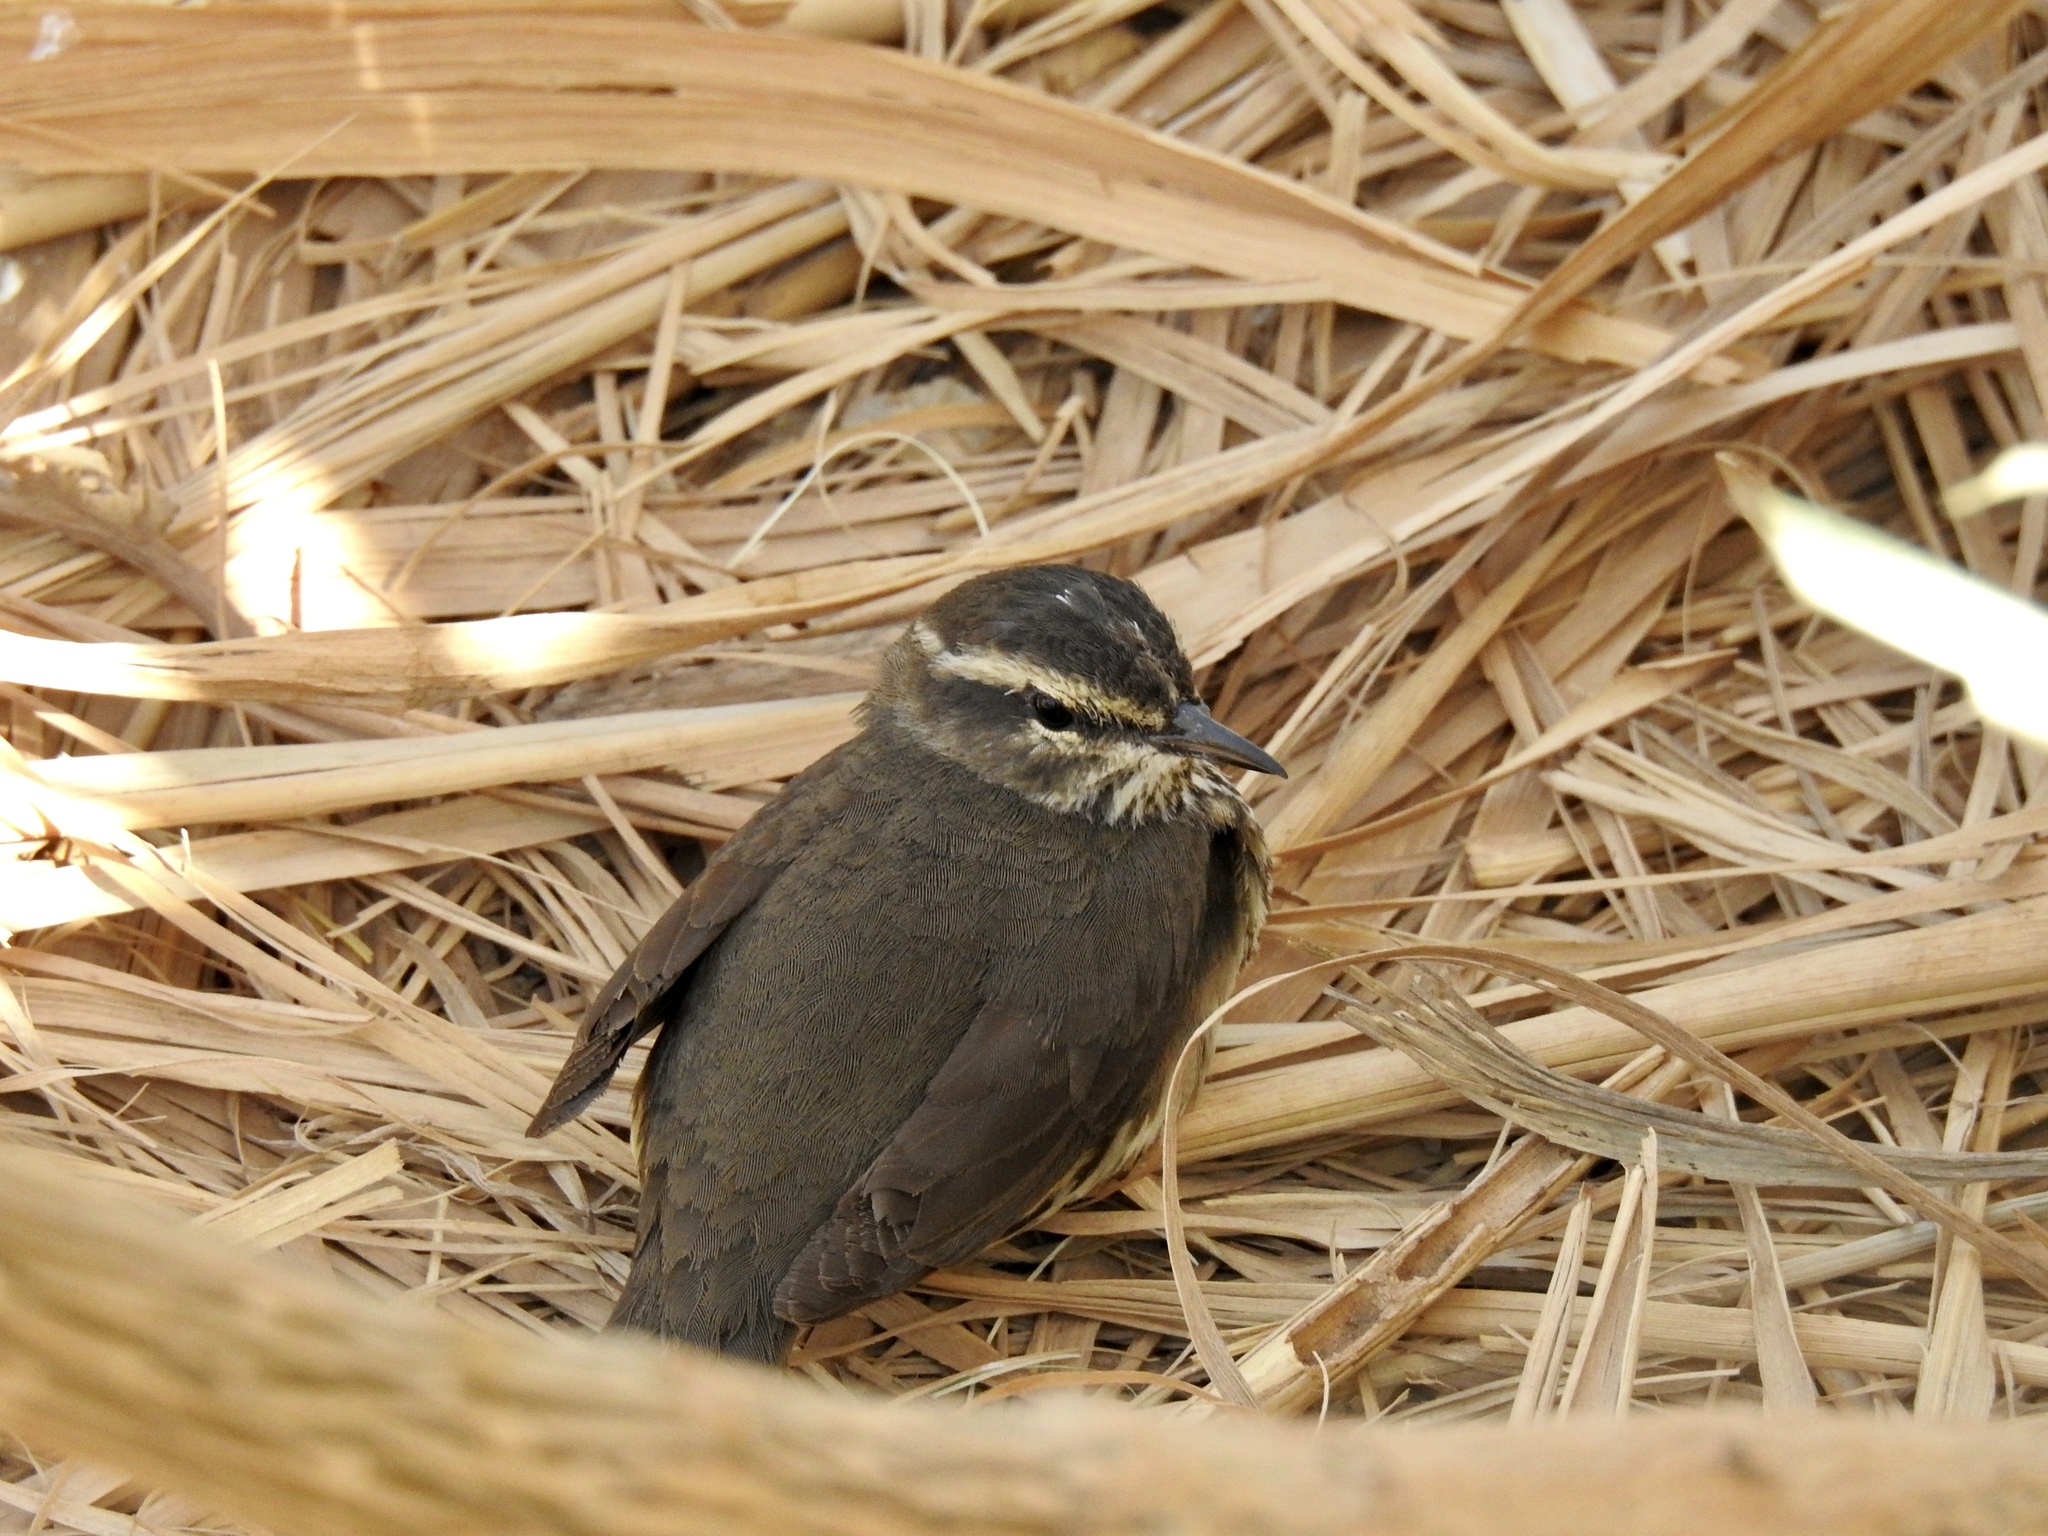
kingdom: Animalia
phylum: Chordata
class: Aves
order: Passeriformes
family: Parulidae
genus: Parkesia
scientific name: Parkesia noveboracensis
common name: Northern waterthrush
